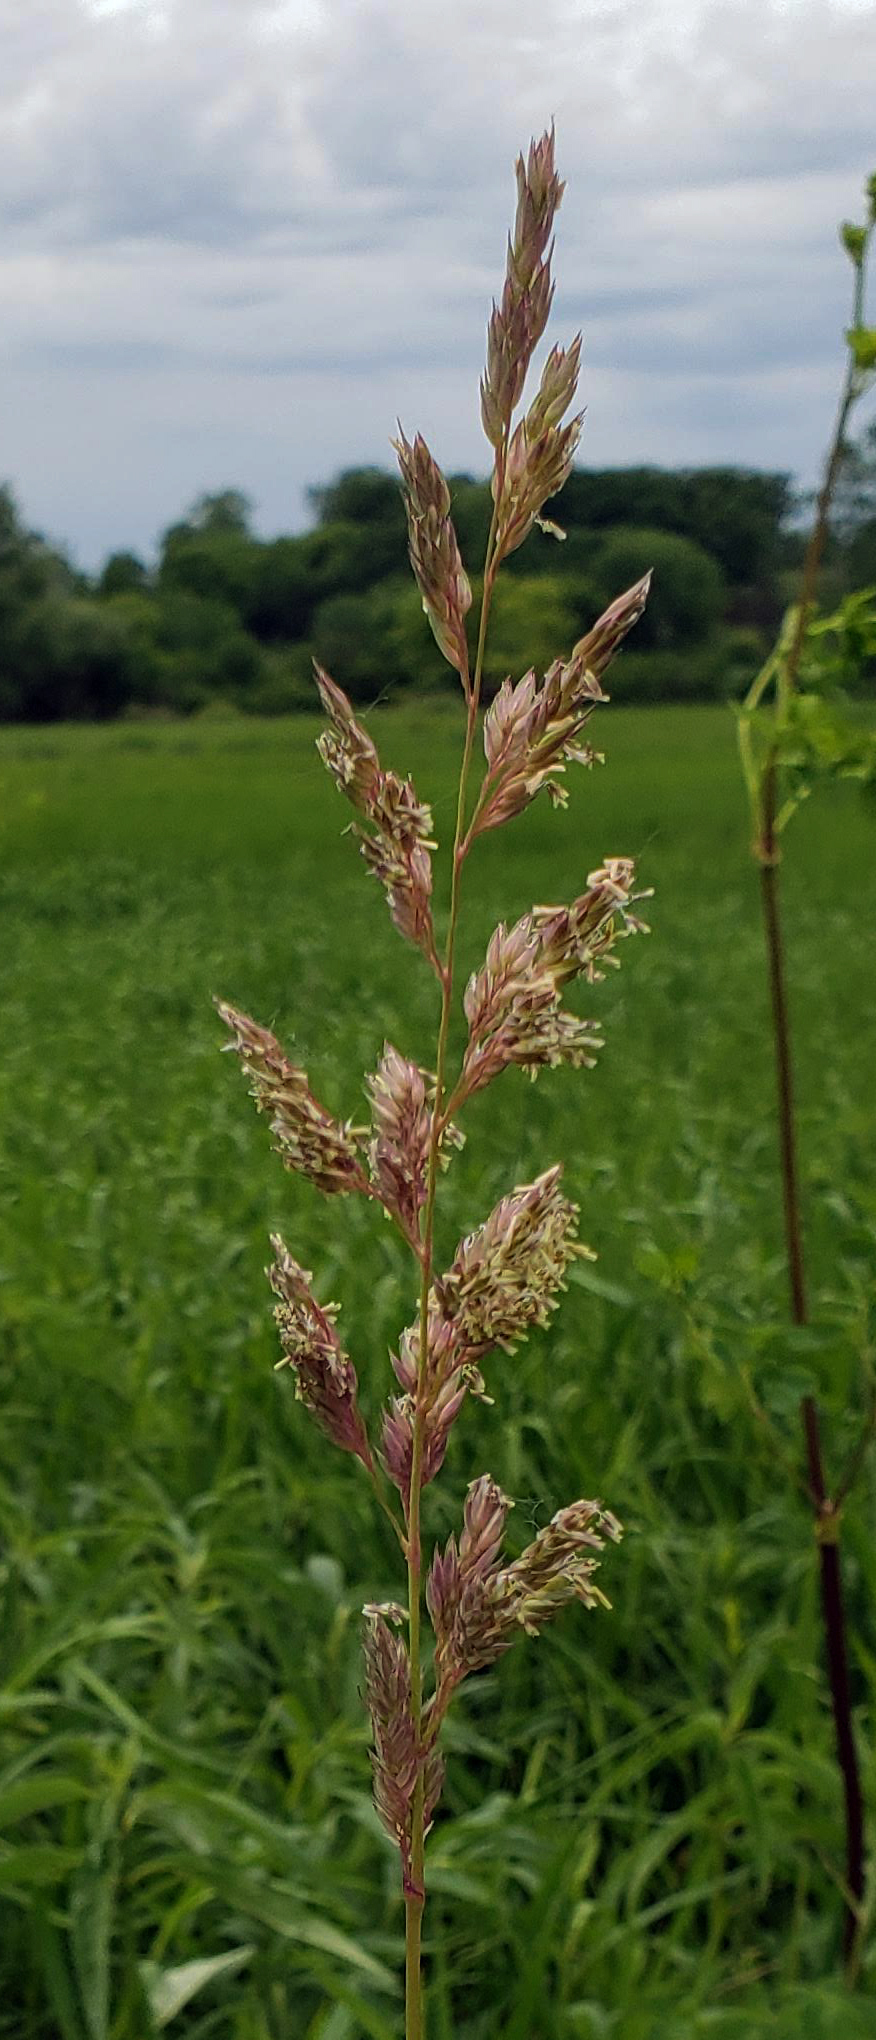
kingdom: Plantae
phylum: Tracheophyta
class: Liliopsida
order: Poales
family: Poaceae
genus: Phalaris
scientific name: Phalaris arundinacea
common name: Reed canary-grass
